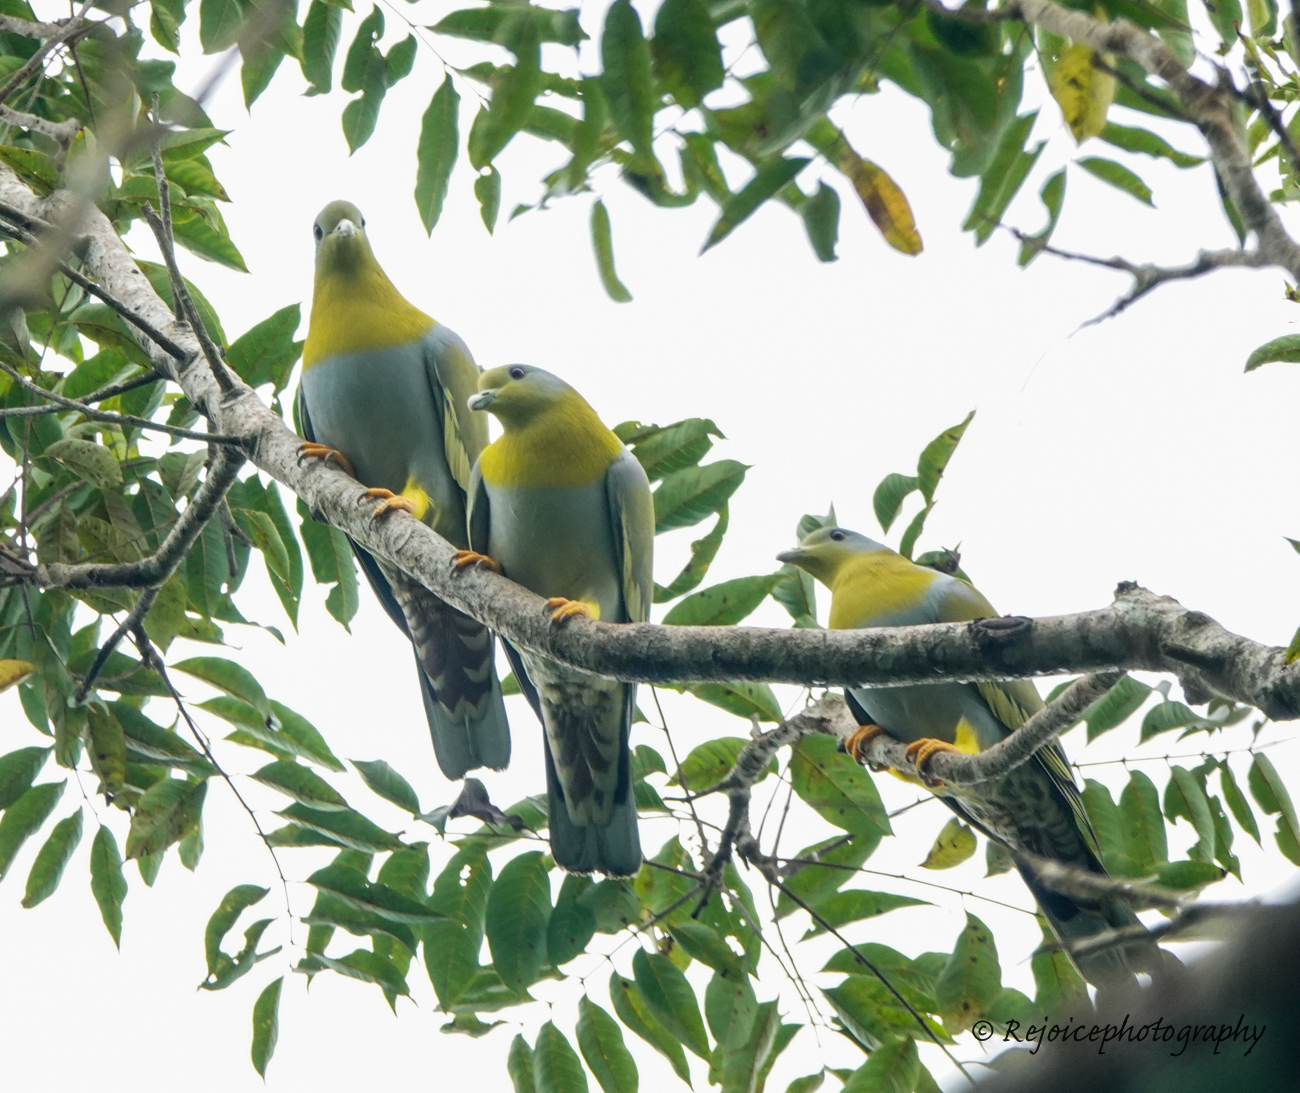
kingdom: Animalia
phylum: Chordata
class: Aves
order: Columbiformes
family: Columbidae
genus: Treron
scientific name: Treron phoenicopterus
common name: Yellow-footed green pigeon
